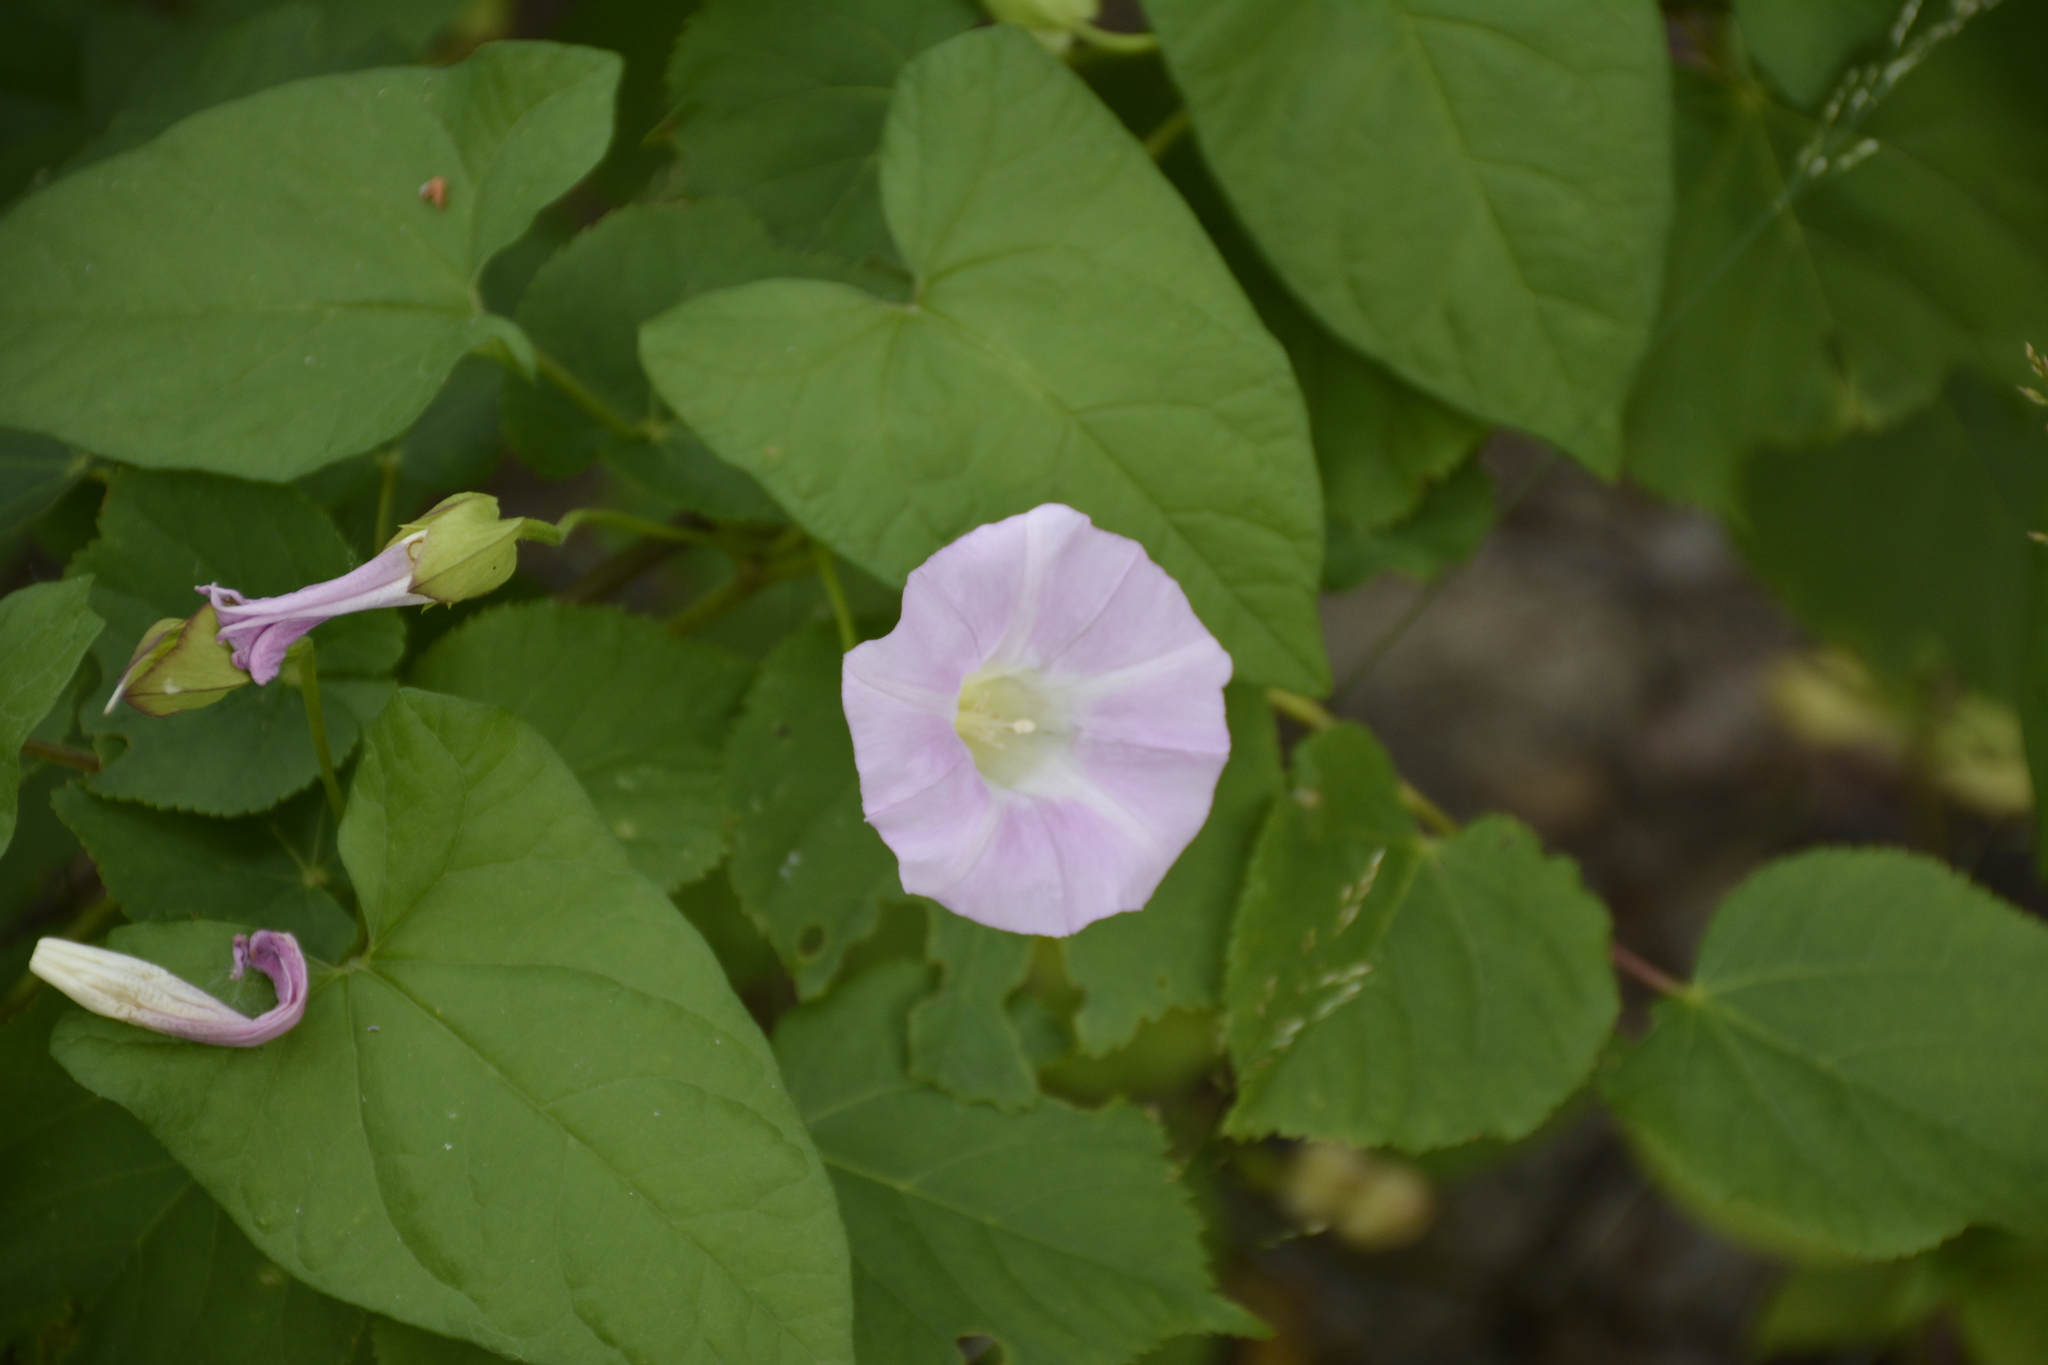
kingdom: Plantae
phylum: Tracheophyta
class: Magnoliopsida
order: Solanales
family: Convolvulaceae
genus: Calystegia
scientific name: Calystegia sepium
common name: Hedge bindweed
